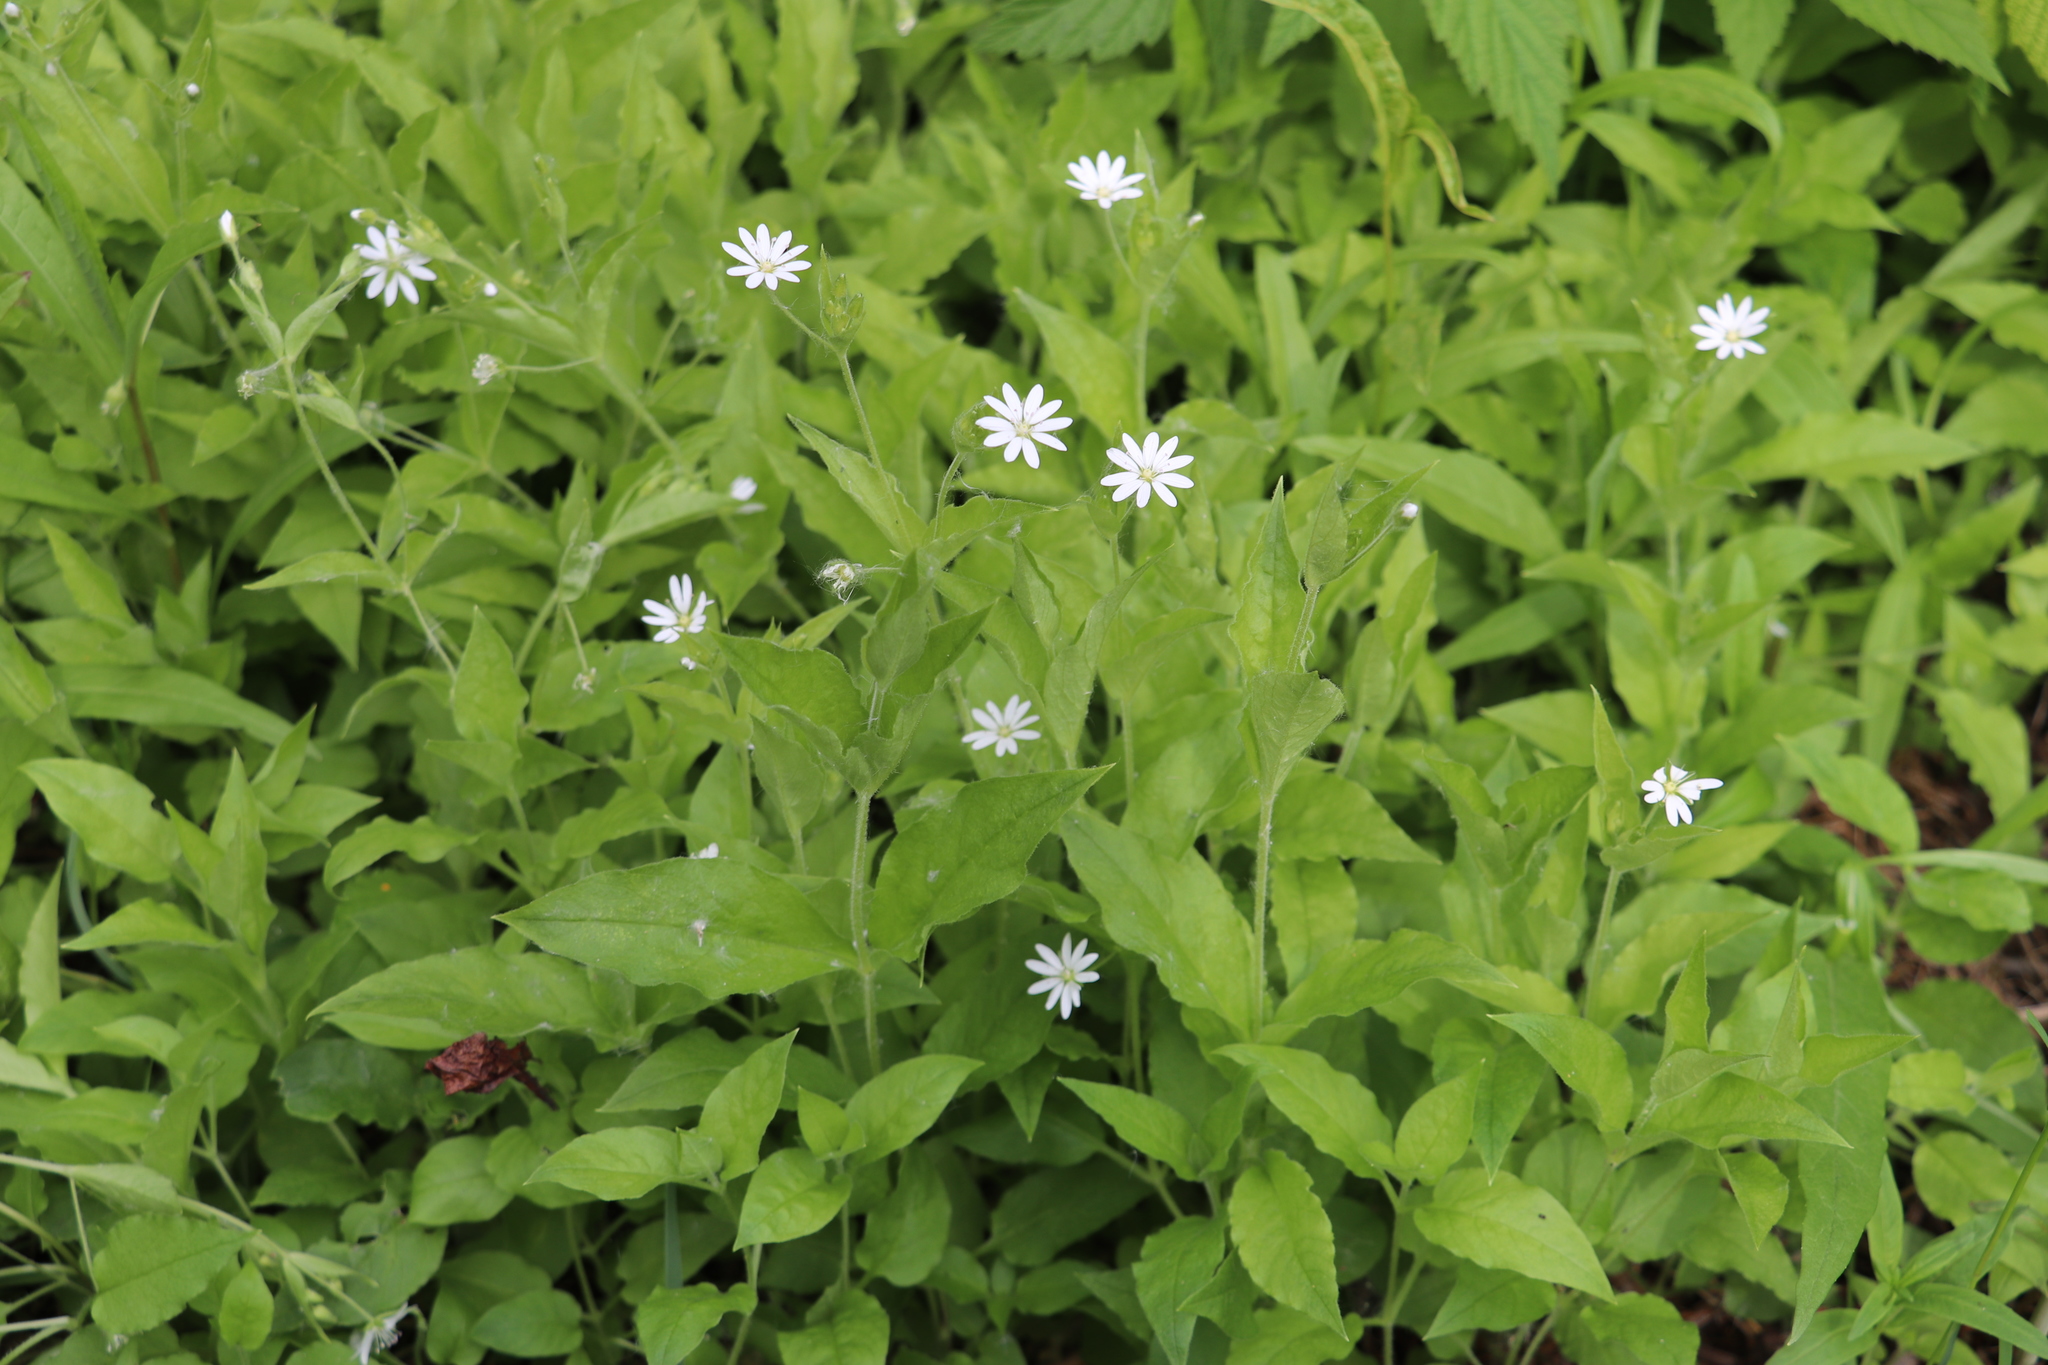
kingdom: Plantae
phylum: Tracheophyta
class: Magnoliopsida
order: Caryophyllales
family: Caryophyllaceae
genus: Stellaria
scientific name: Stellaria bungeana
